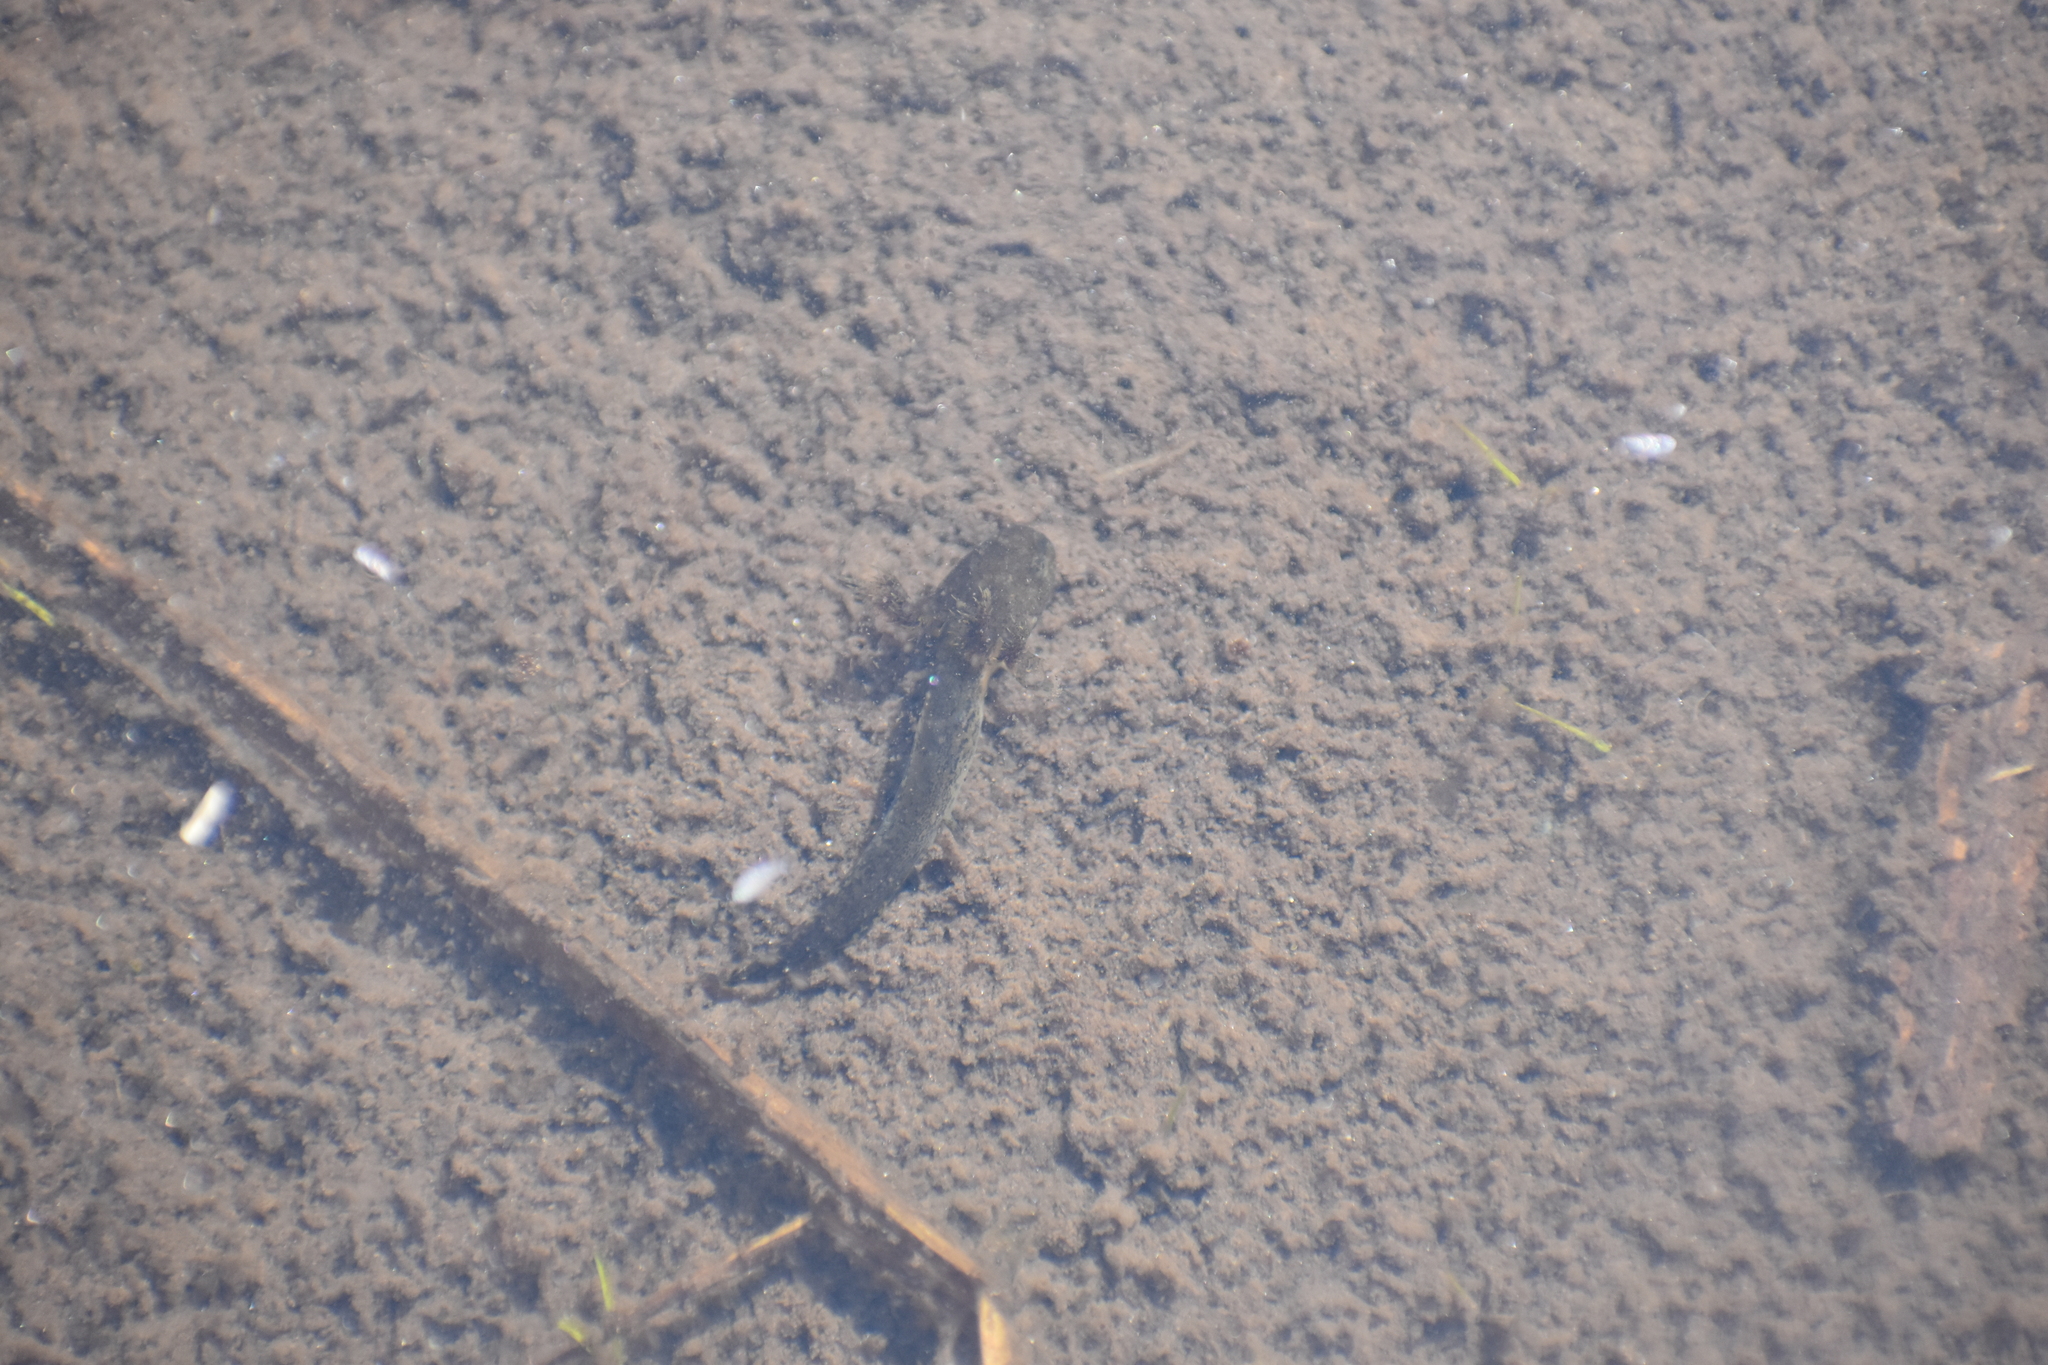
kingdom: Animalia
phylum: Chordata
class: Amphibia
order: Caudata
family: Ambystomatidae
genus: Ambystoma
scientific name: Ambystoma maculatum
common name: Spotted salamander
